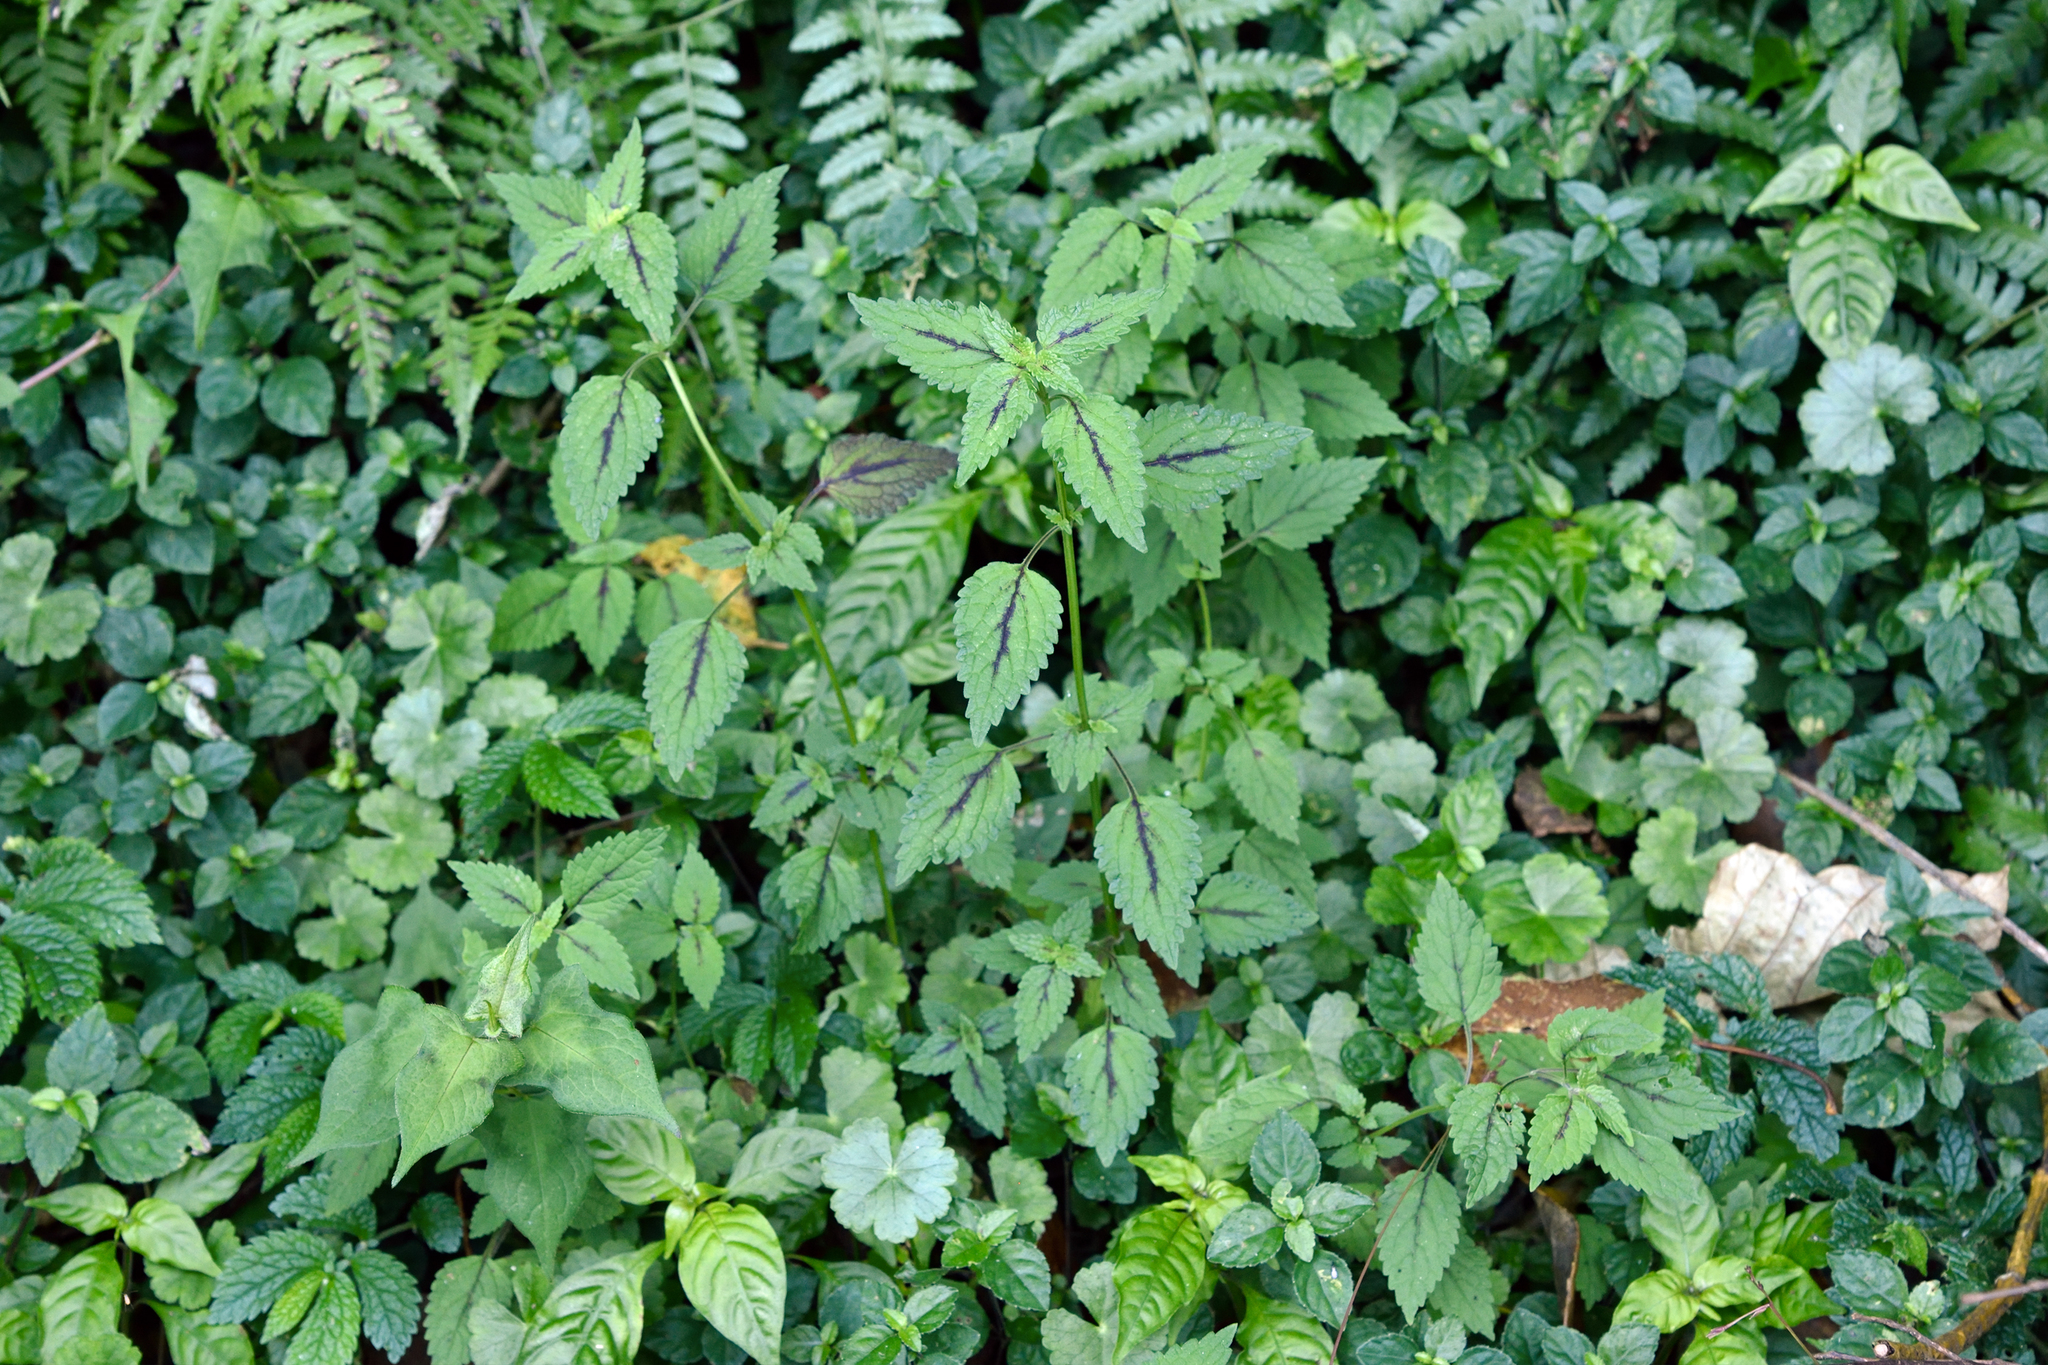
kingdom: Plantae
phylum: Tracheophyta
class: Magnoliopsida
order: Lamiales
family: Lamiaceae
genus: Melissa
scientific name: Melissa axillaris
